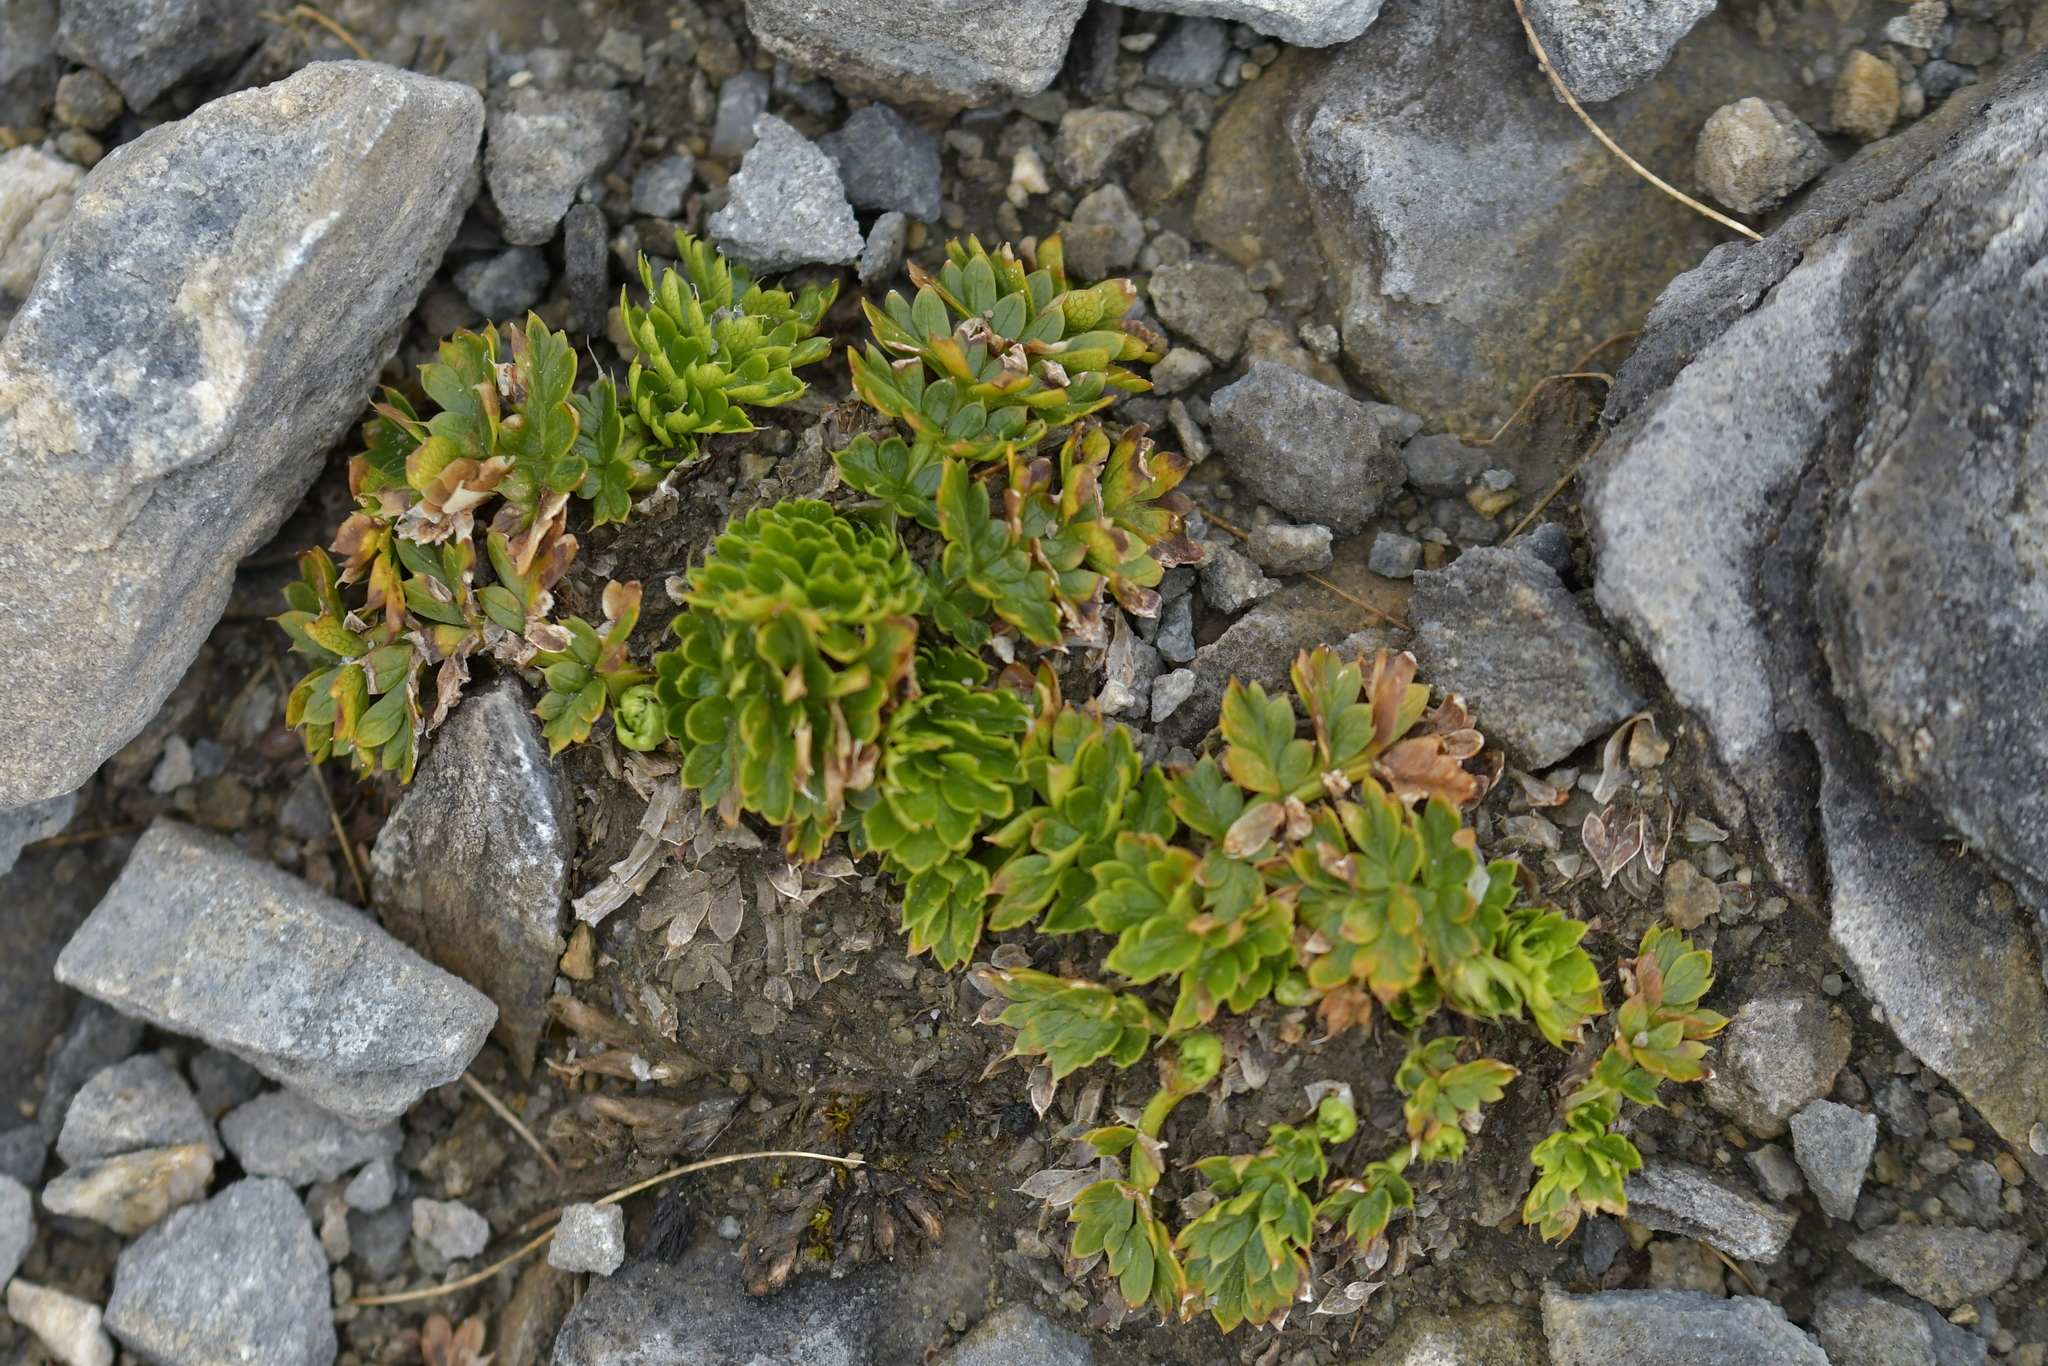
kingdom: Plantae
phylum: Tracheophyta
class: Magnoliopsida
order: Apiales
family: Apiaceae
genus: Anisotome
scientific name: Anisotome pilifera
